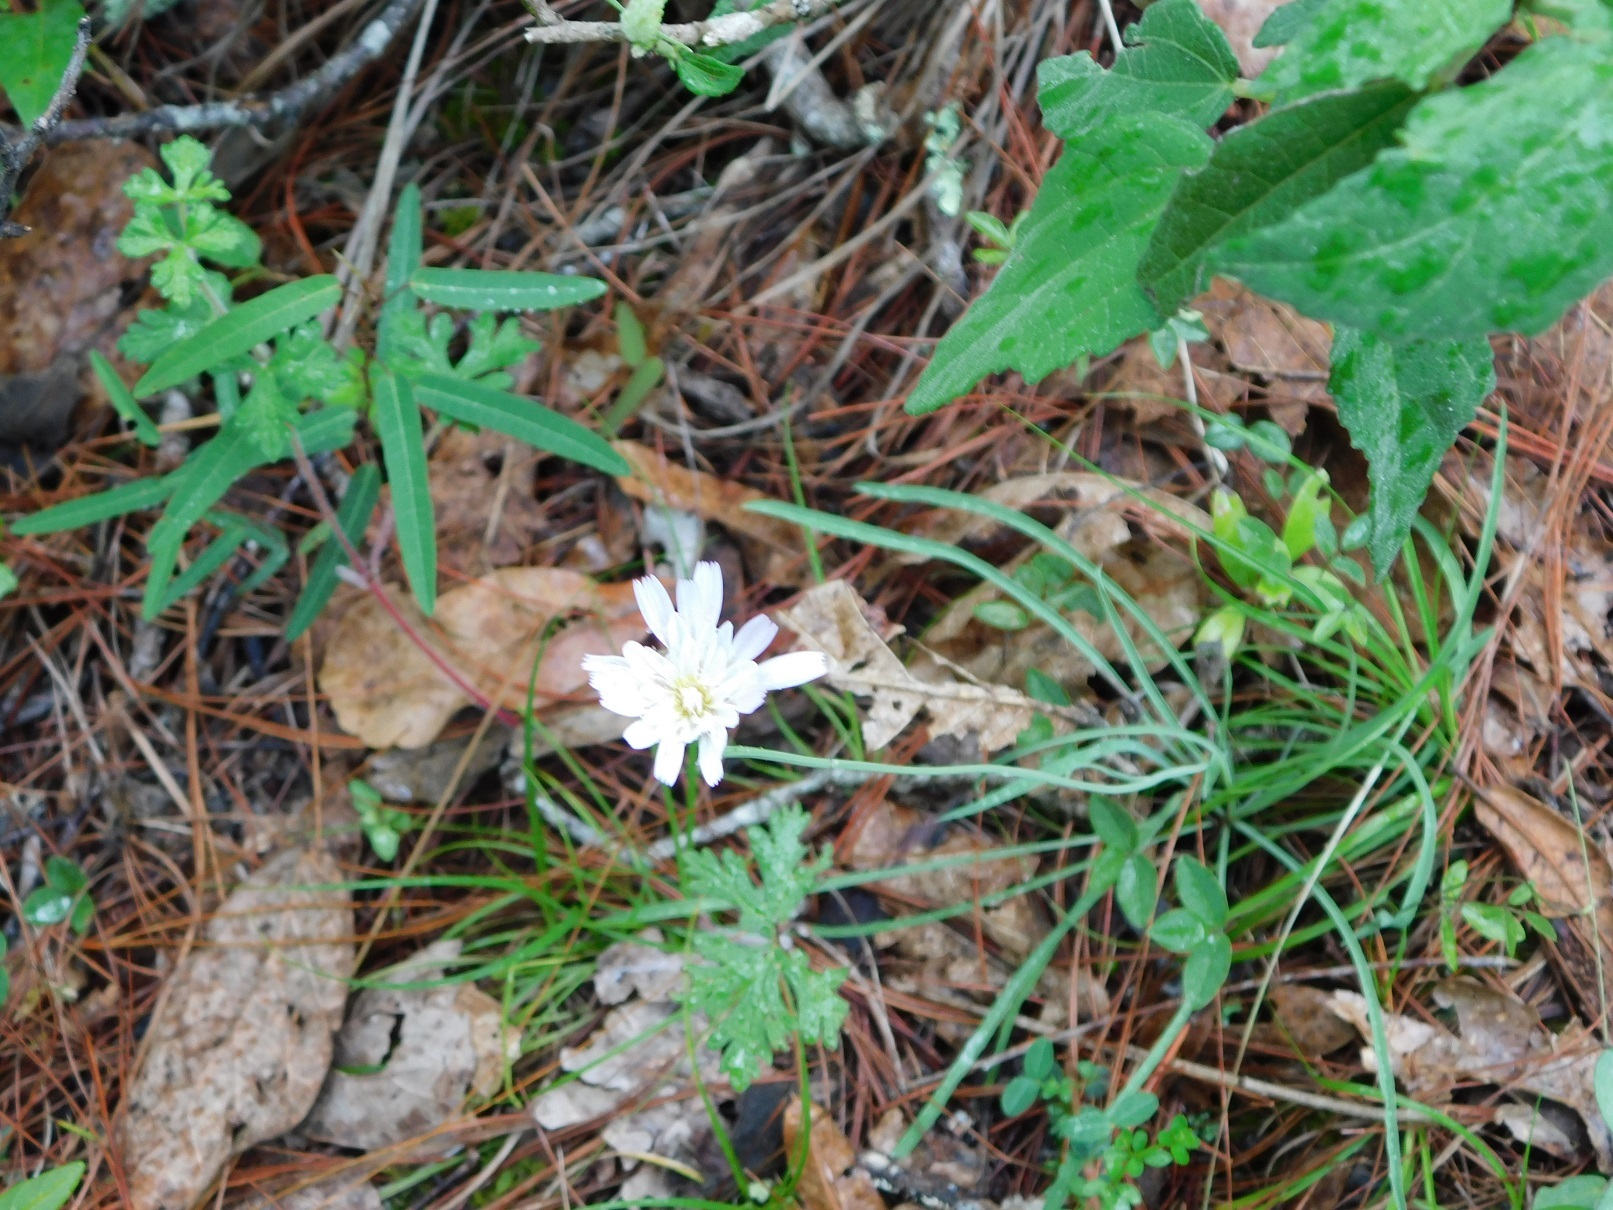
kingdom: Plantae
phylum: Tracheophyta
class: Magnoliopsida
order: Asterales
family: Asteraceae
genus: Pinaropappus
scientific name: Pinaropappus spathulatus
